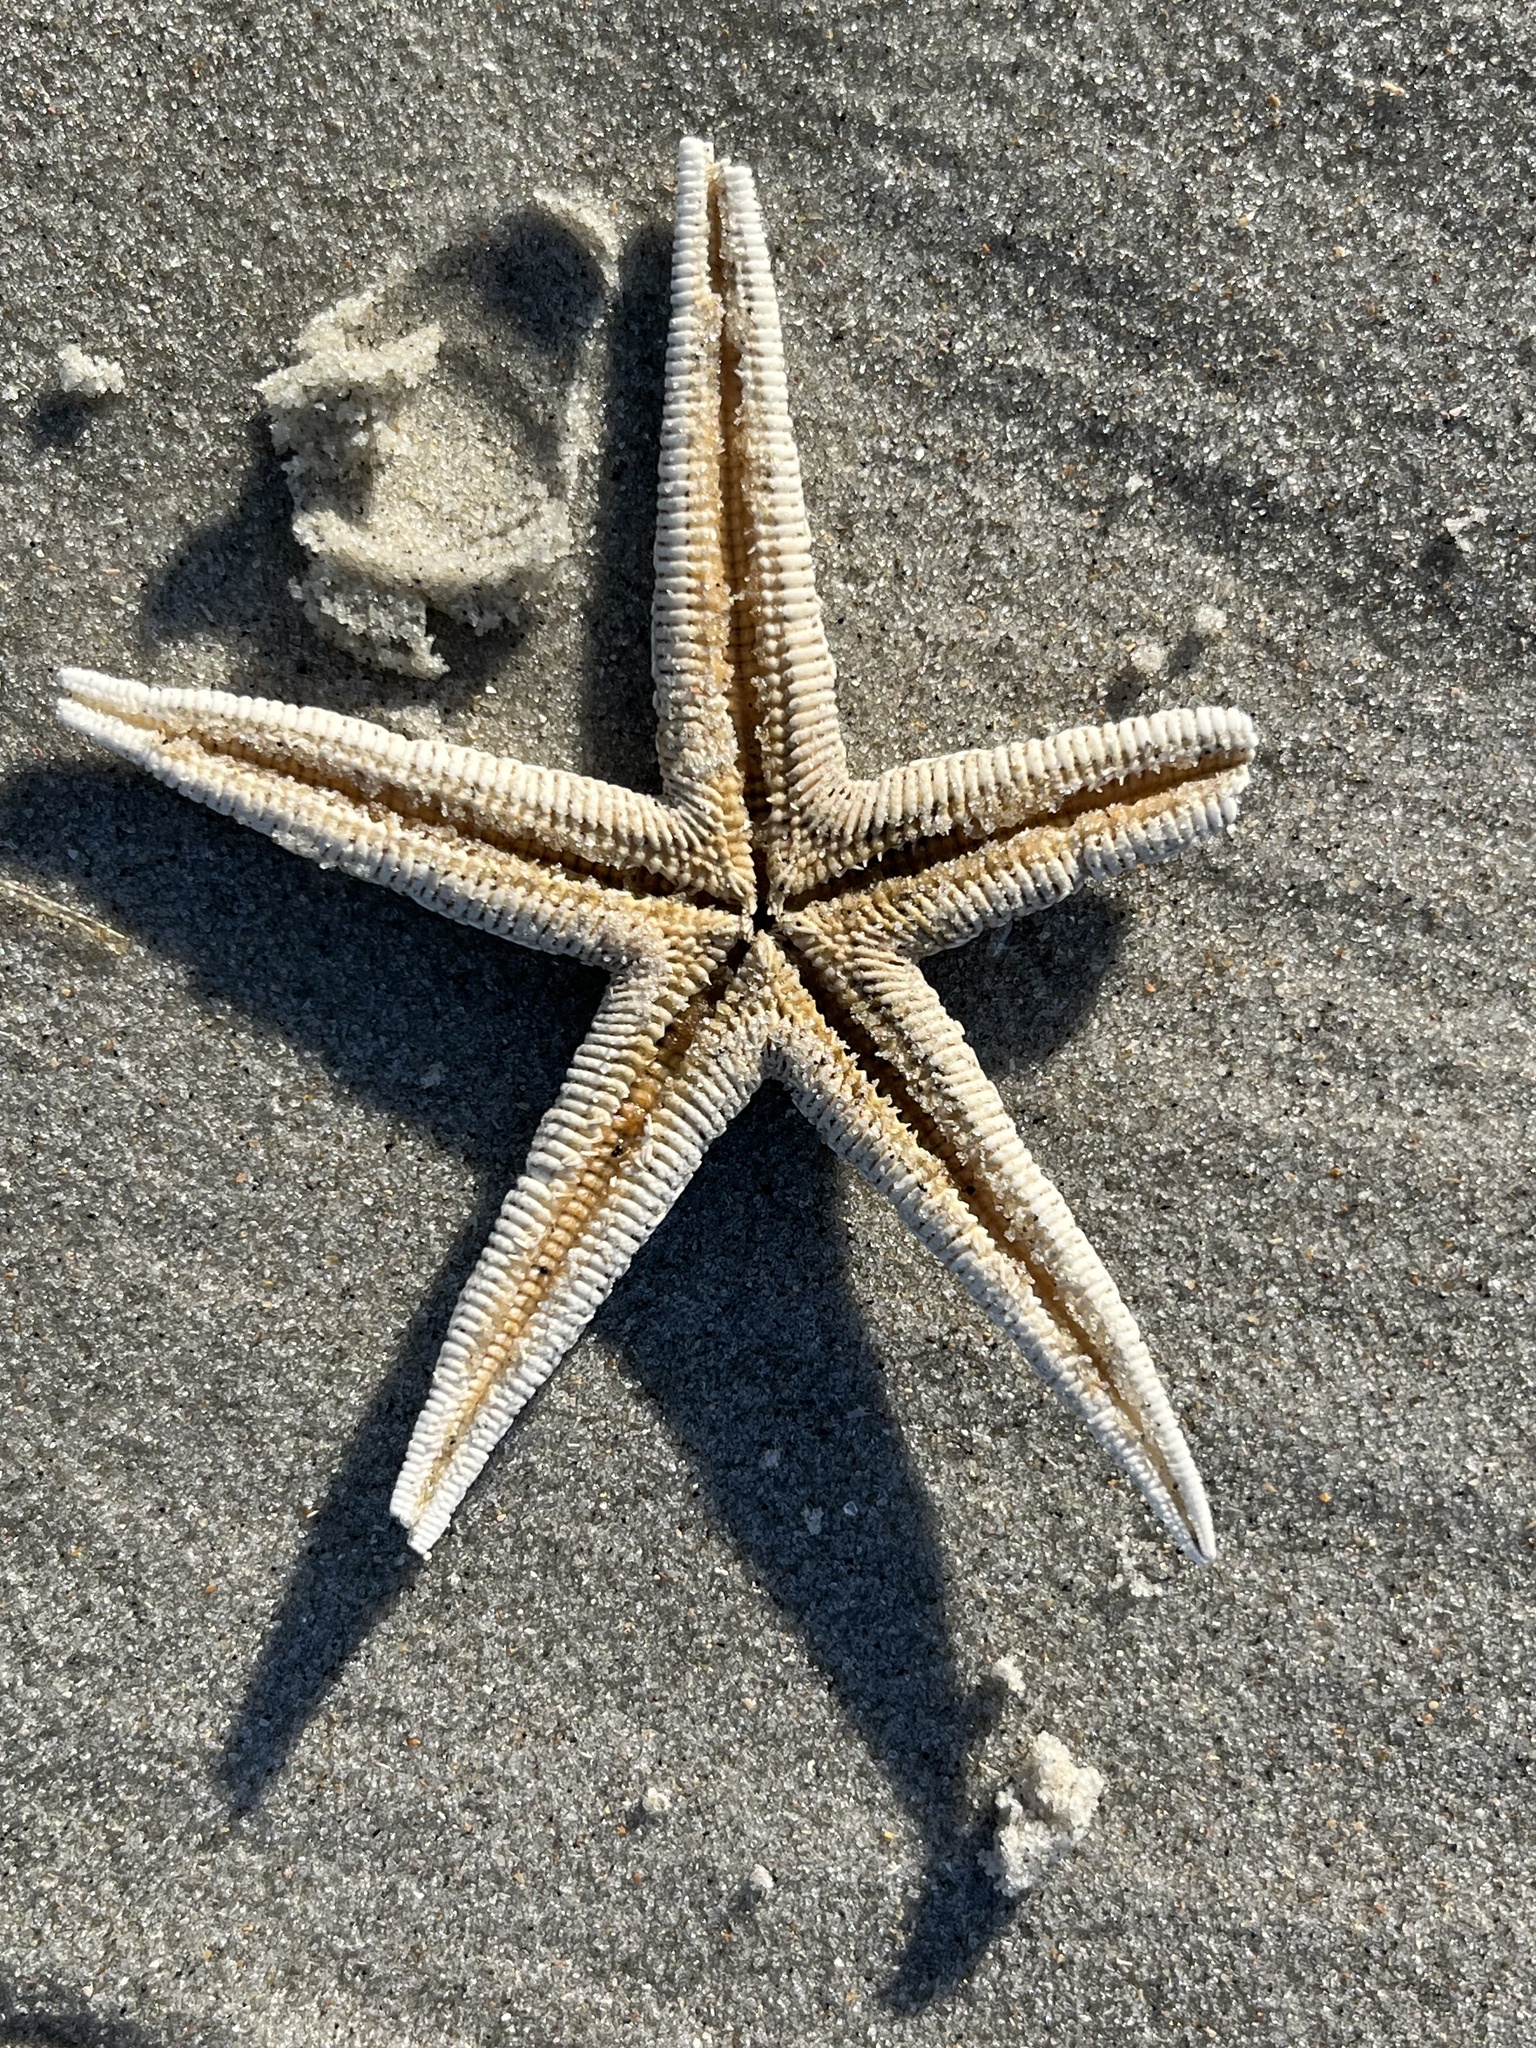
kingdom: Animalia
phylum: Echinodermata
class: Asteroidea
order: Paxillosida
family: Luidiidae
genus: Luidia
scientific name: Luidia clathrata
